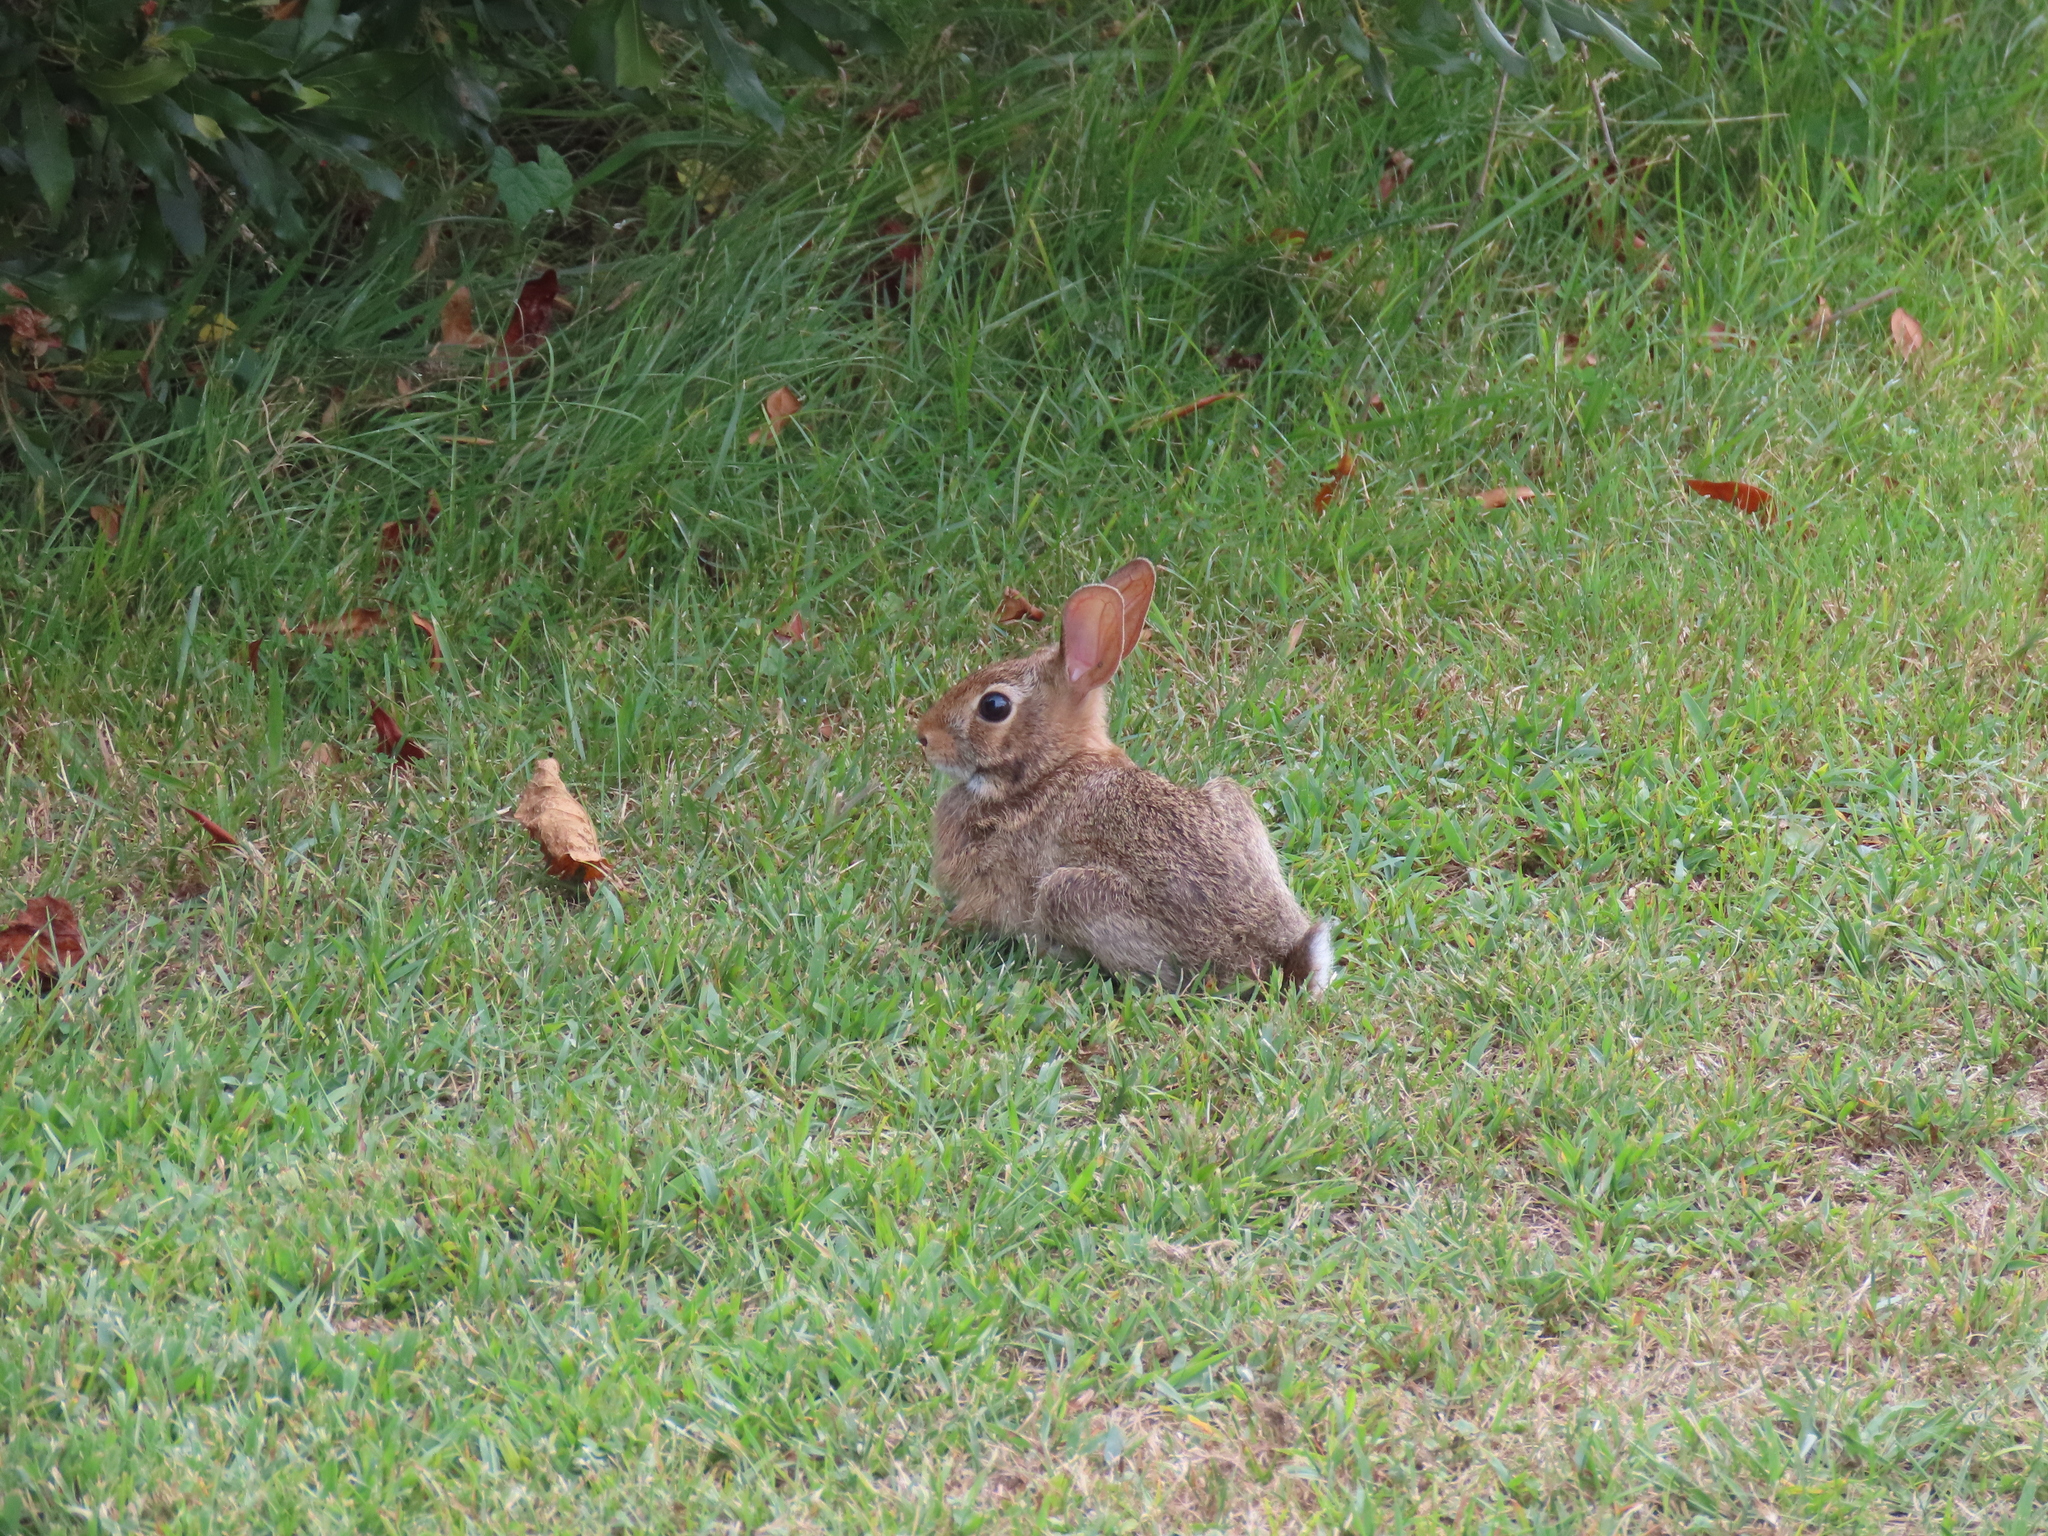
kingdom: Animalia
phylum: Chordata
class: Mammalia
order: Lagomorpha
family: Leporidae
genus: Sylvilagus
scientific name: Sylvilagus floridanus
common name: Eastern cottontail
